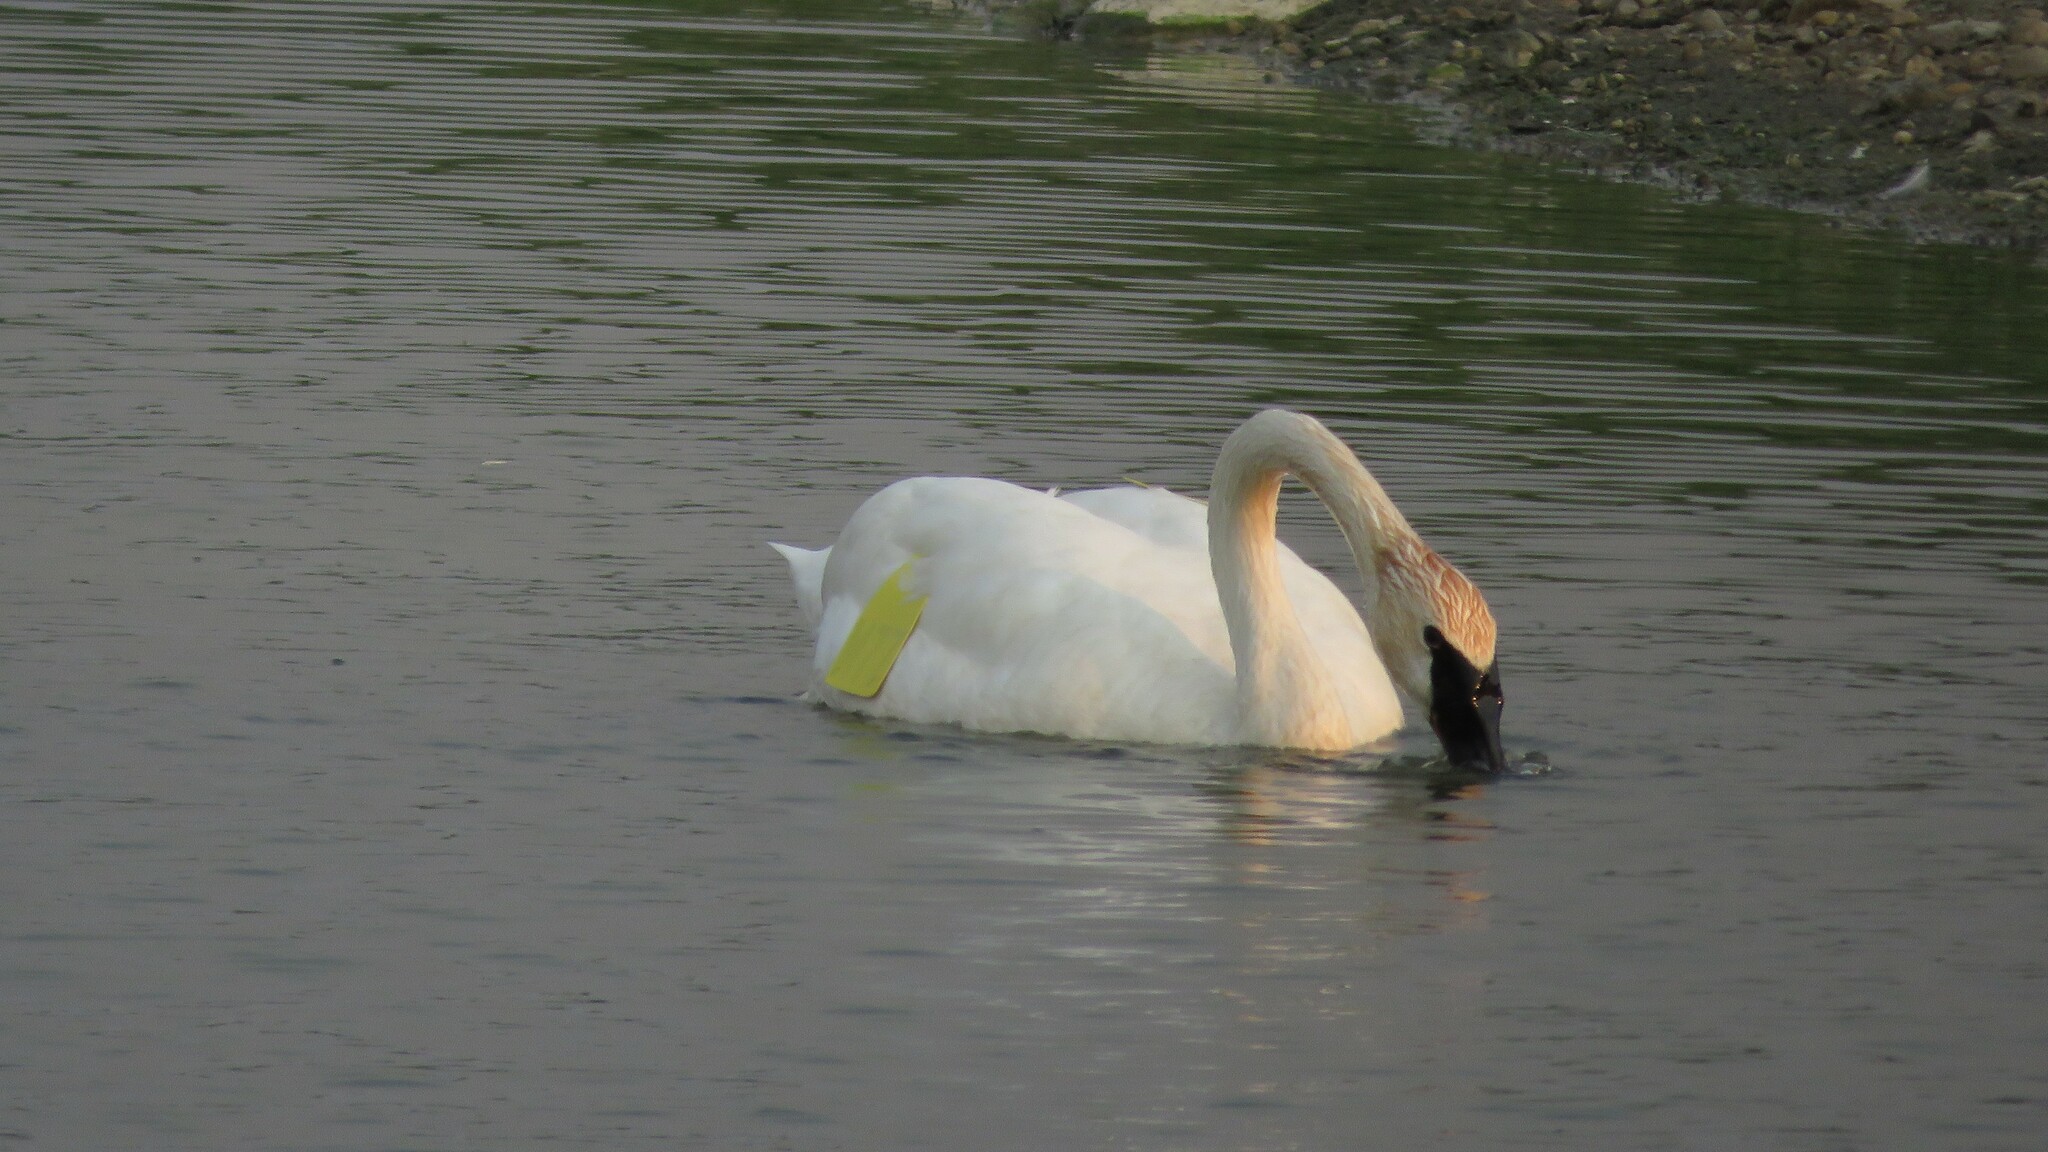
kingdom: Animalia
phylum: Chordata
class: Aves
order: Anseriformes
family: Anatidae
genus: Cygnus
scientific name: Cygnus buccinator
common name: Trumpeter swan
